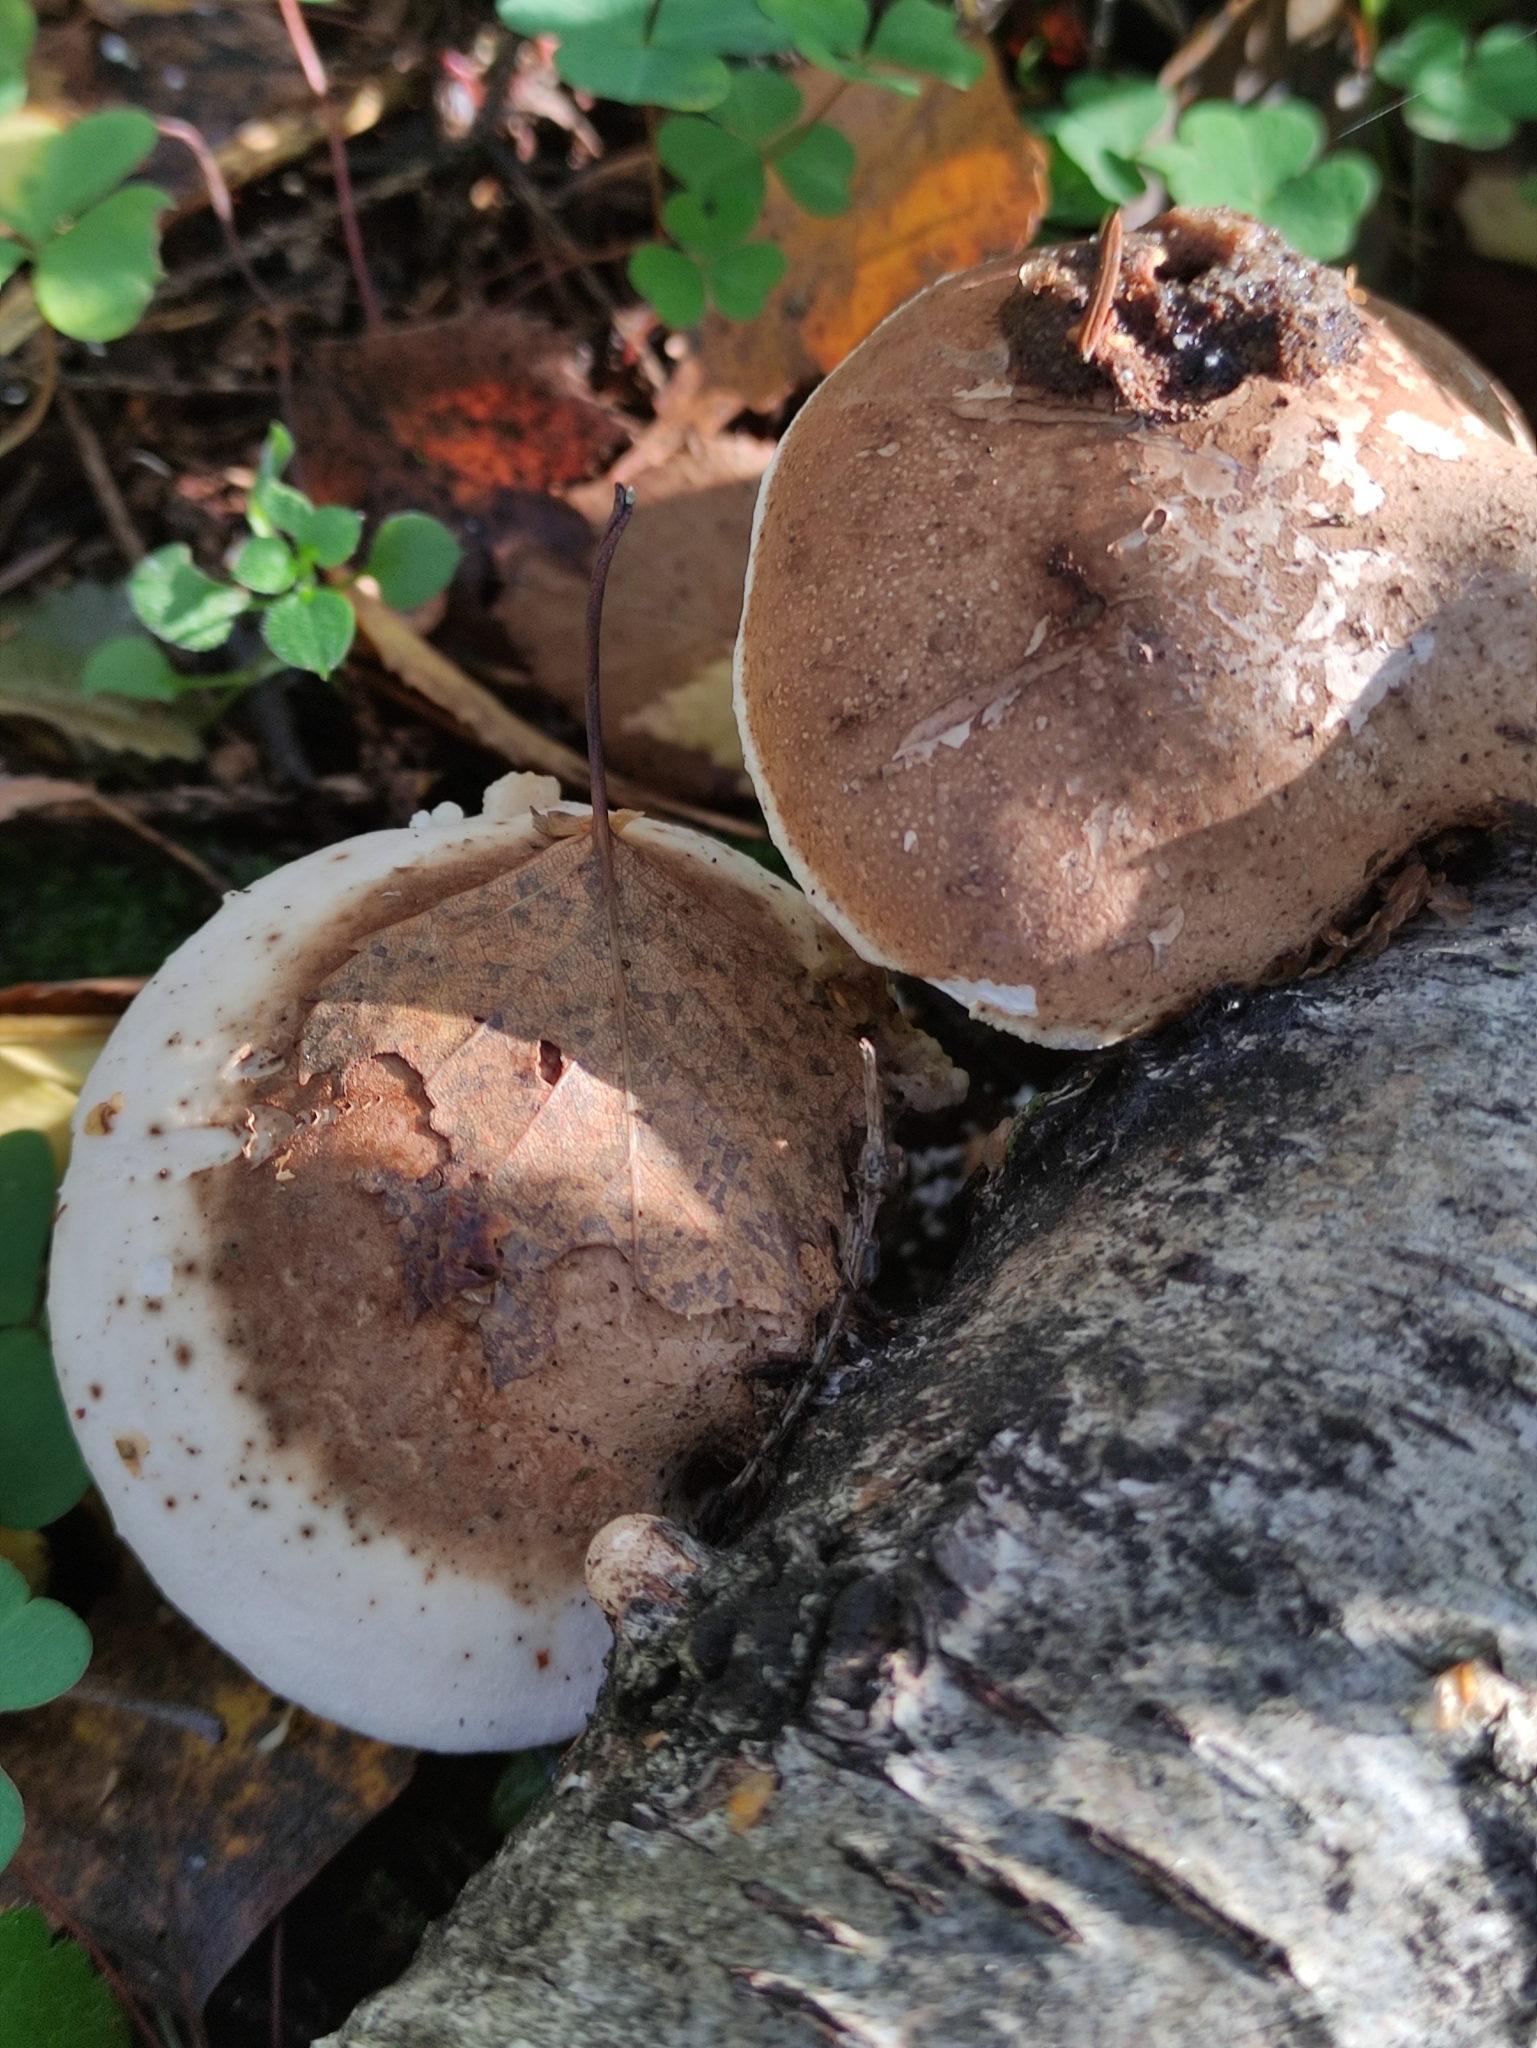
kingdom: Fungi
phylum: Basidiomycota
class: Agaricomycetes
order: Polyporales
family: Fomitopsidaceae
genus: Fomitopsis
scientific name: Fomitopsis betulina
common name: Birch polypore
